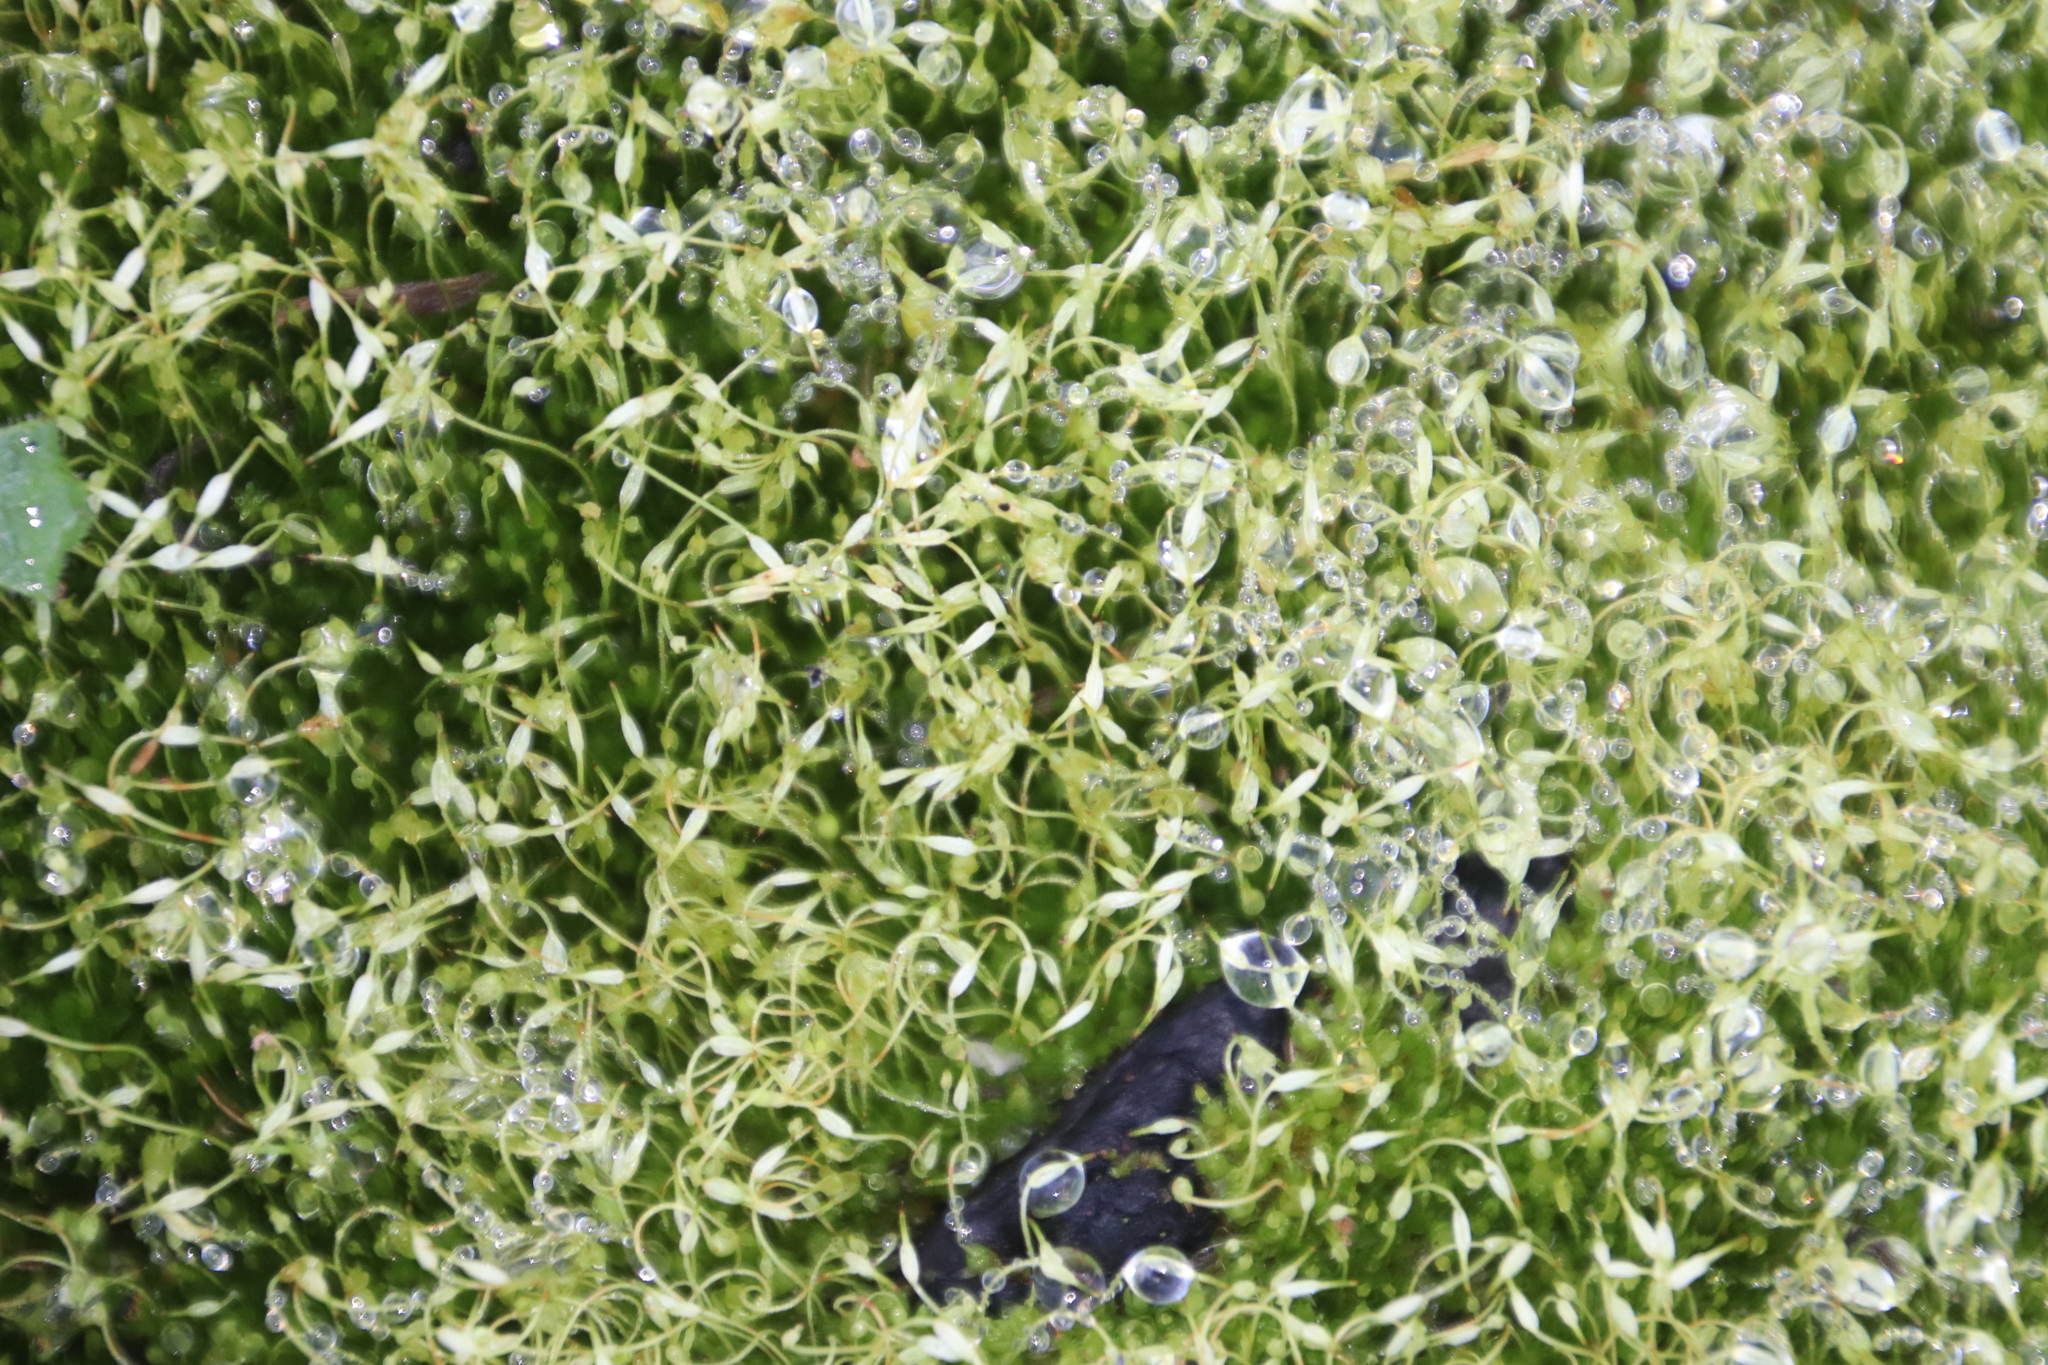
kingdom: Plantae
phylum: Bryophyta
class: Bryopsida
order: Funariales
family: Funariaceae
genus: Funaria
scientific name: Funaria hygrometrica
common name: Common cord moss
